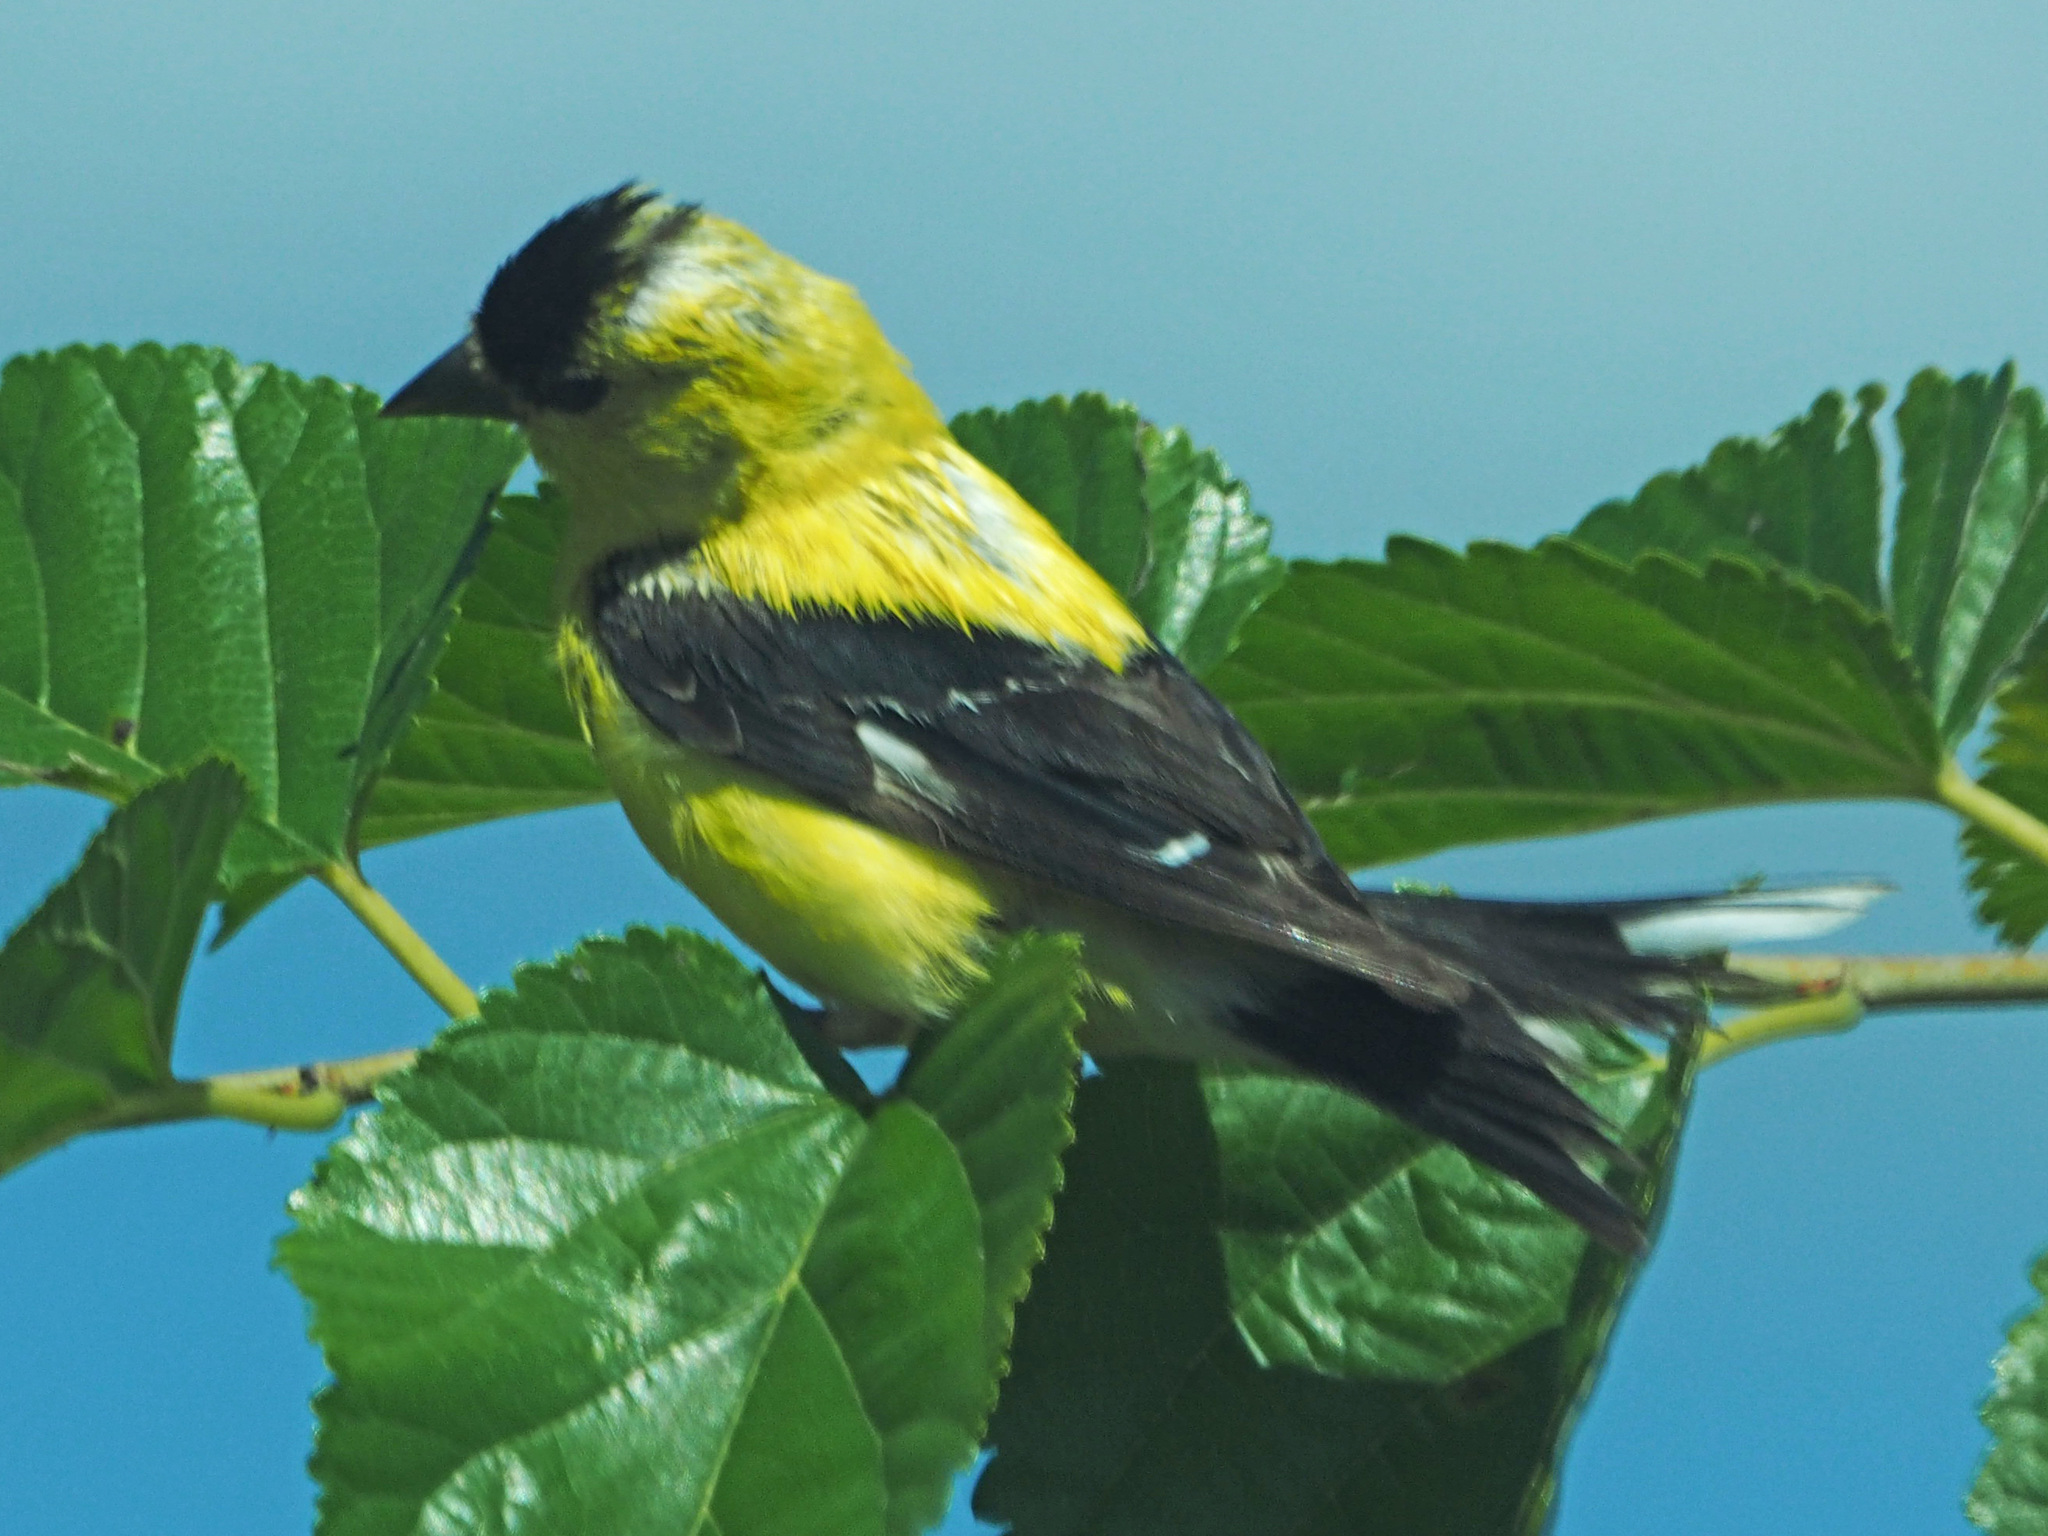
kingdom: Animalia
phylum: Chordata
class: Aves
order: Passeriformes
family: Fringillidae
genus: Spinus
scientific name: Spinus tristis
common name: American goldfinch
